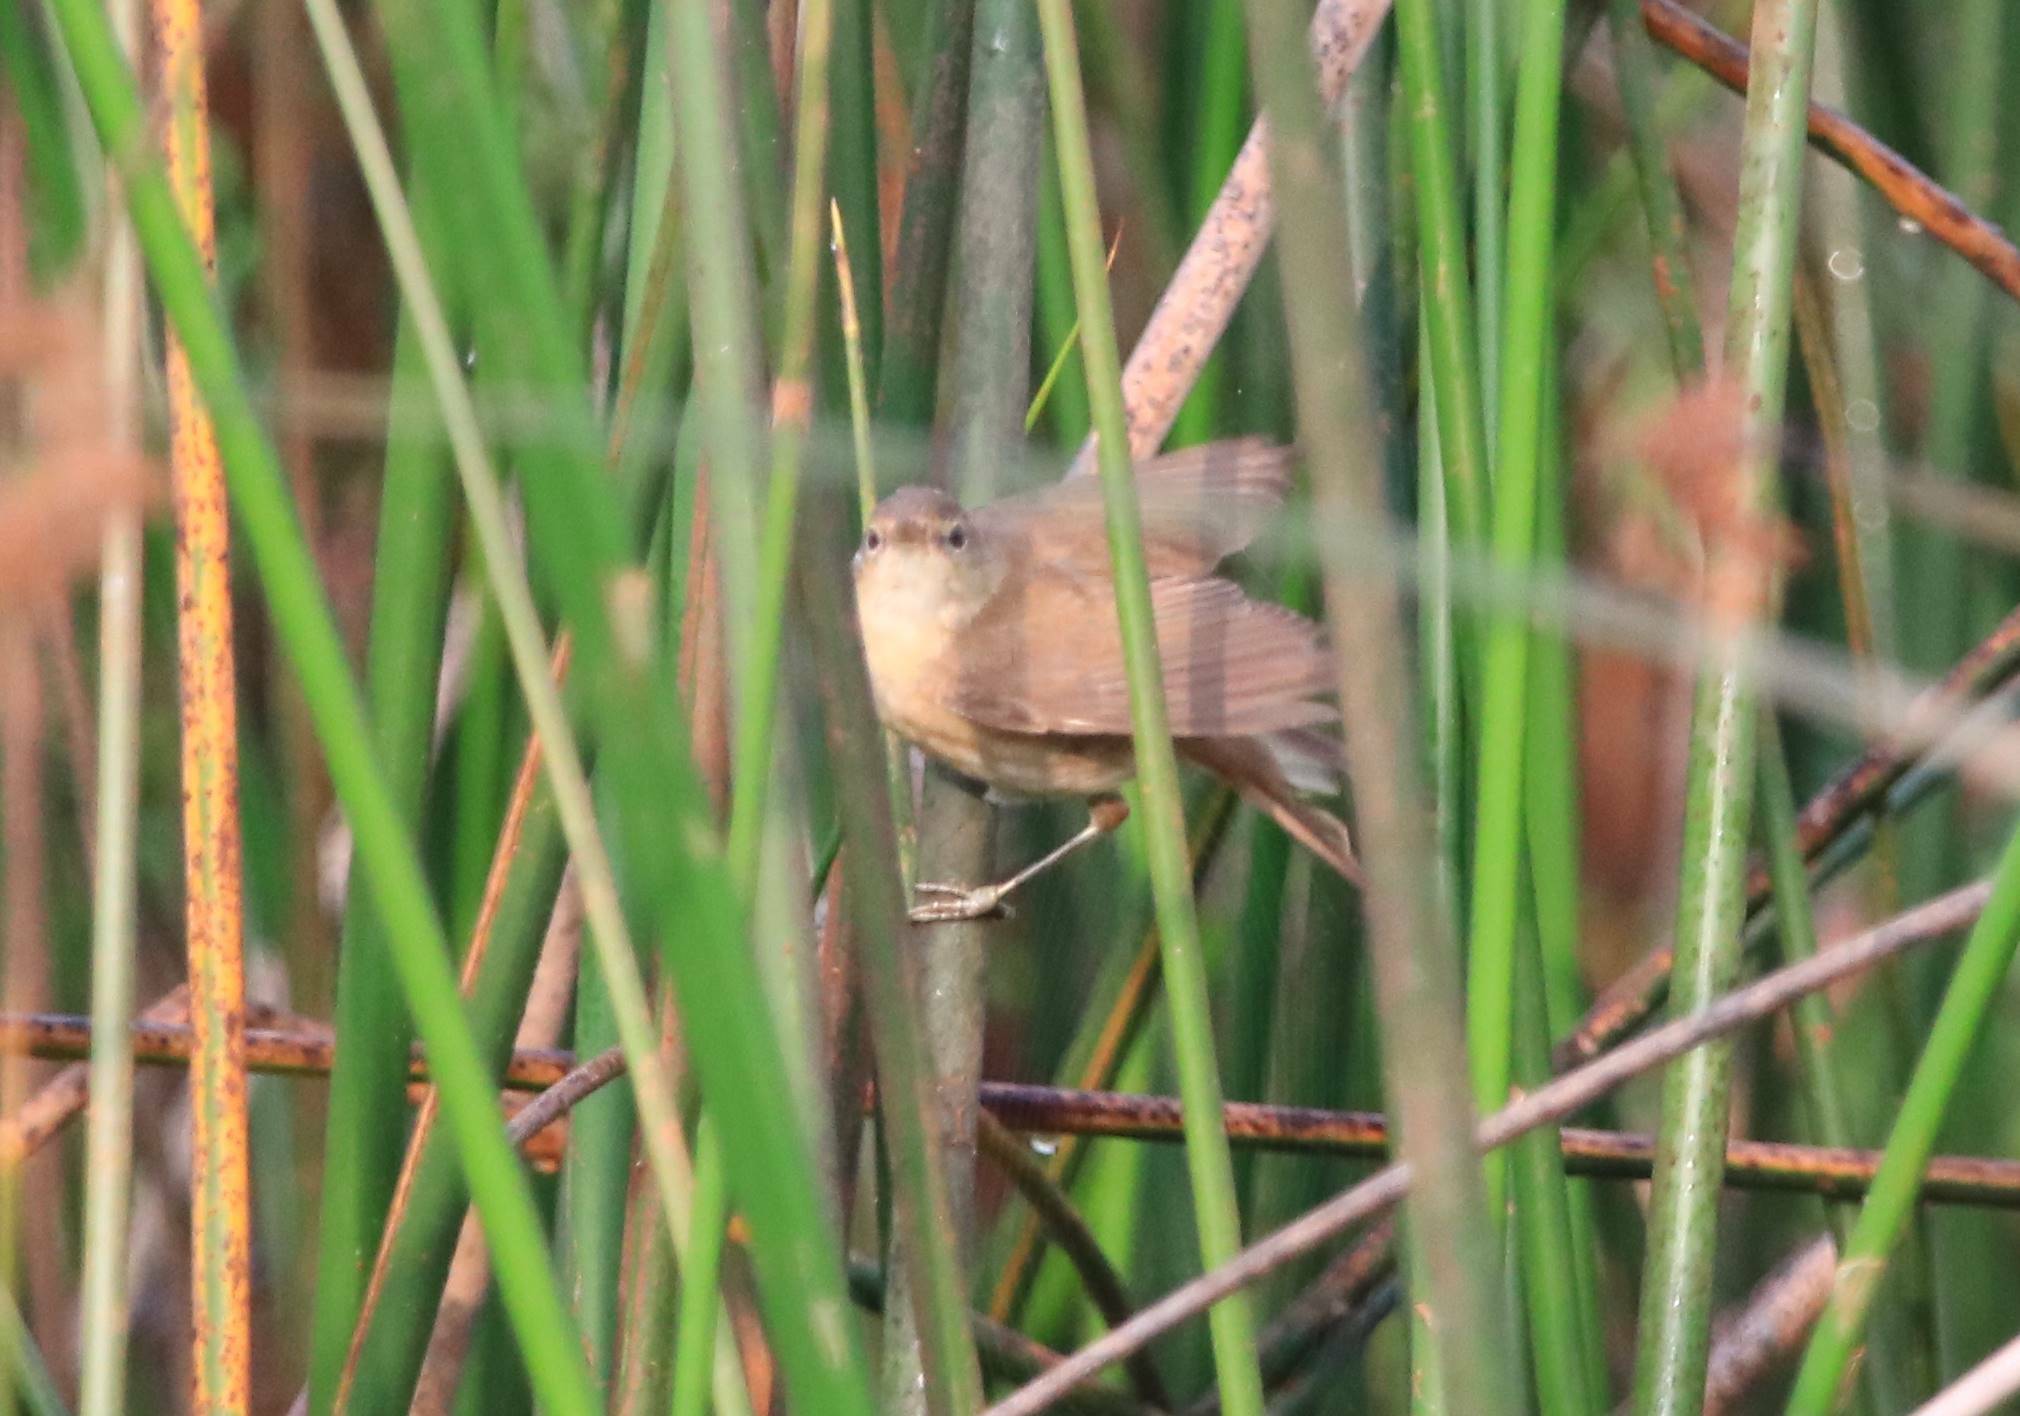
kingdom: Animalia
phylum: Chordata
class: Aves
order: Passeriformes
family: Acrocephalidae
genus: Acrocephalus
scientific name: Acrocephalus scirpaceus
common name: Eurasian reed warbler
